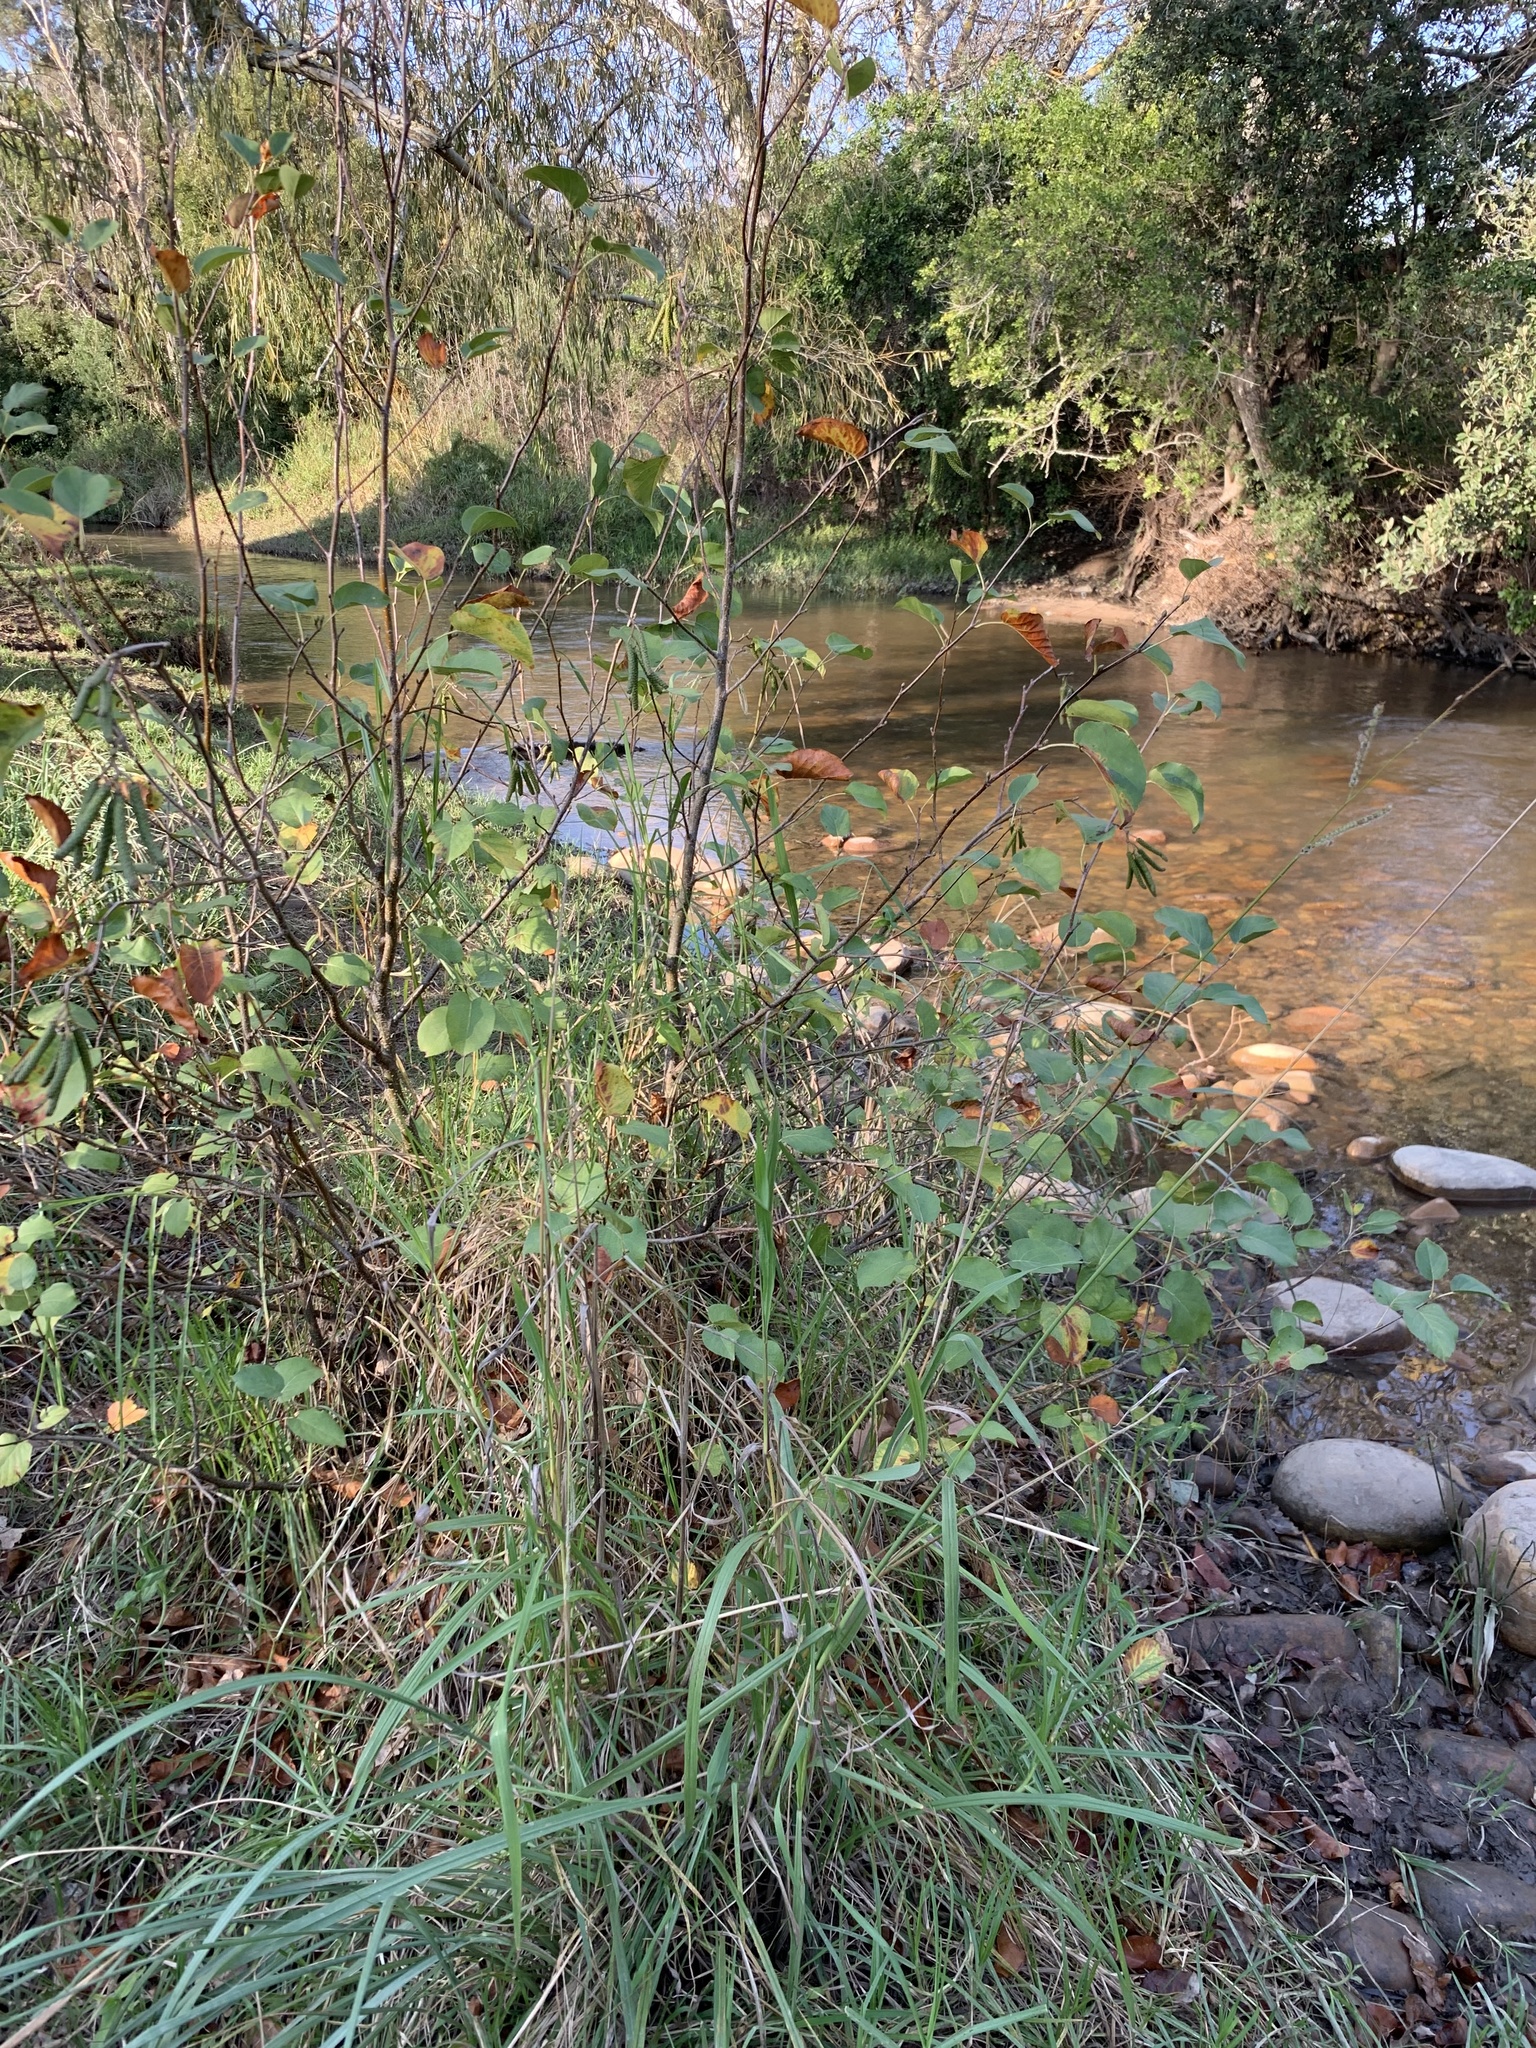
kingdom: Plantae
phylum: Tracheophyta
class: Magnoliopsida
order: Fagales
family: Betulaceae
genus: Alnus
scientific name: Alnus glutinosa
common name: Black alder
